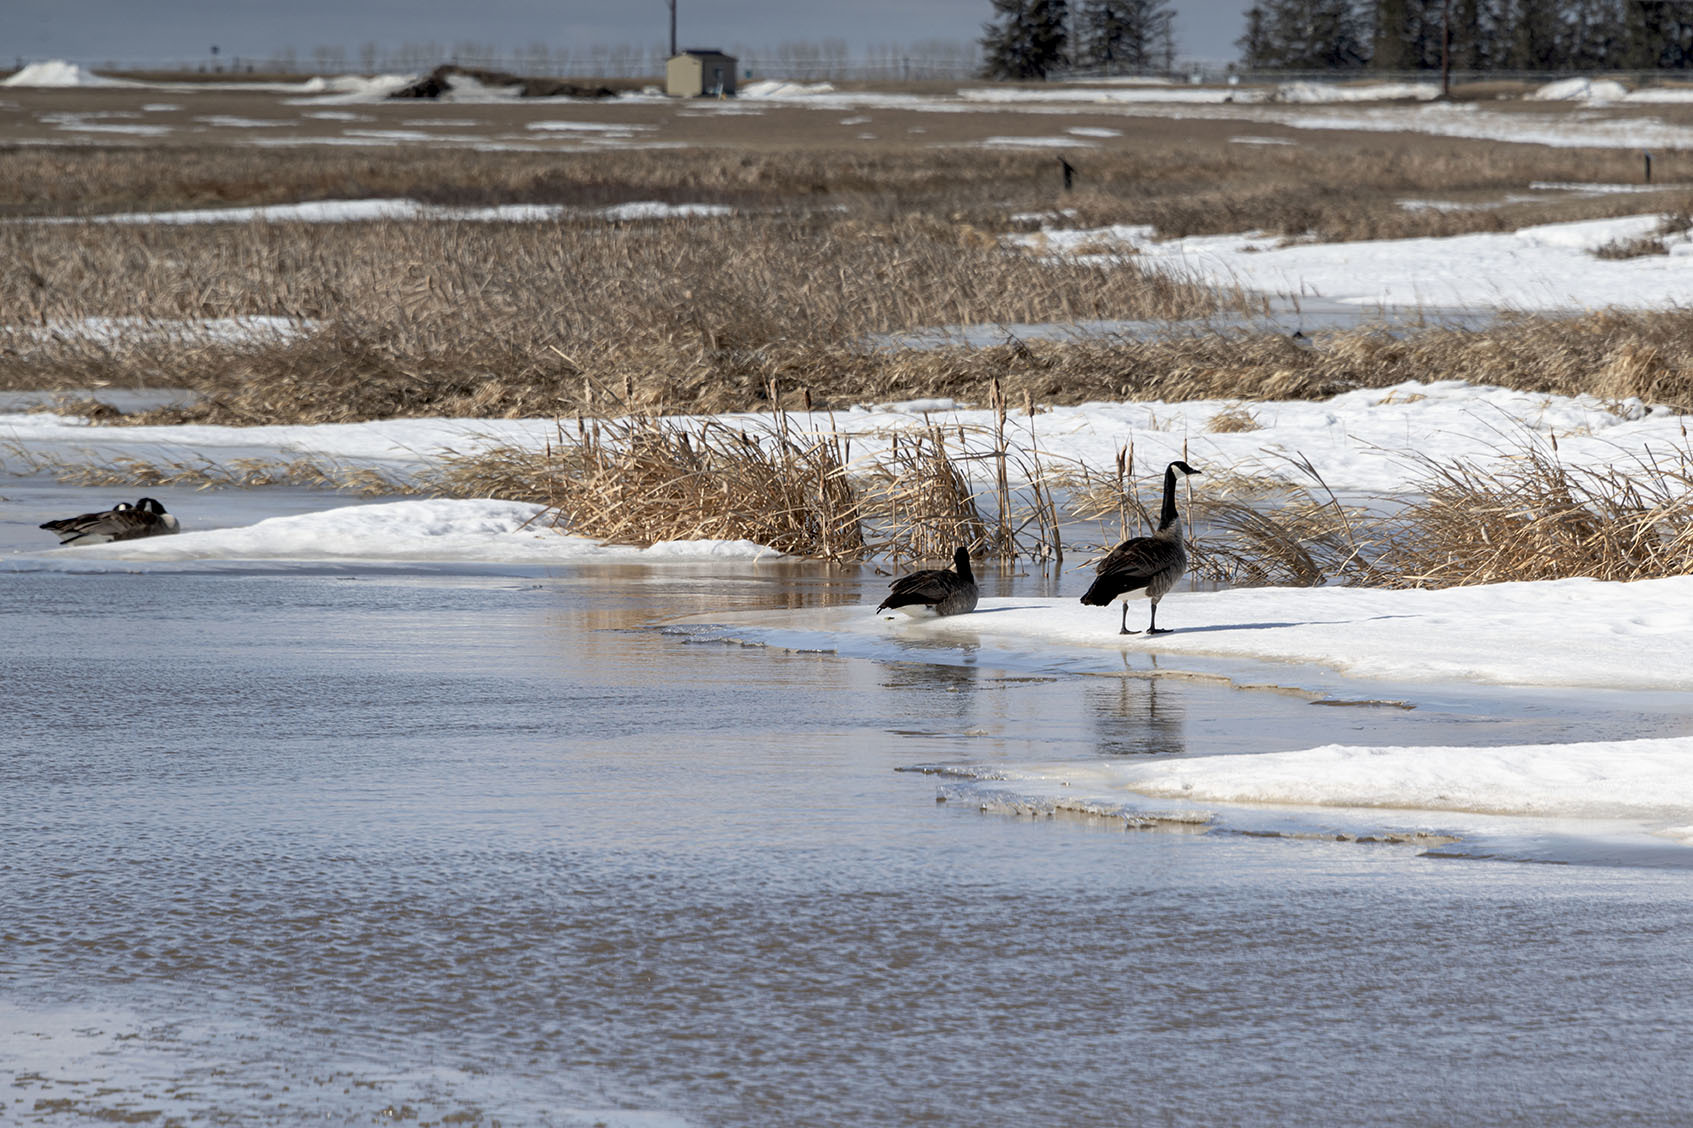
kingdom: Animalia
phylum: Chordata
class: Aves
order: Anseriformes
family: Anatidae
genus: Branta
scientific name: Branta canadensis
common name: Canada goose
